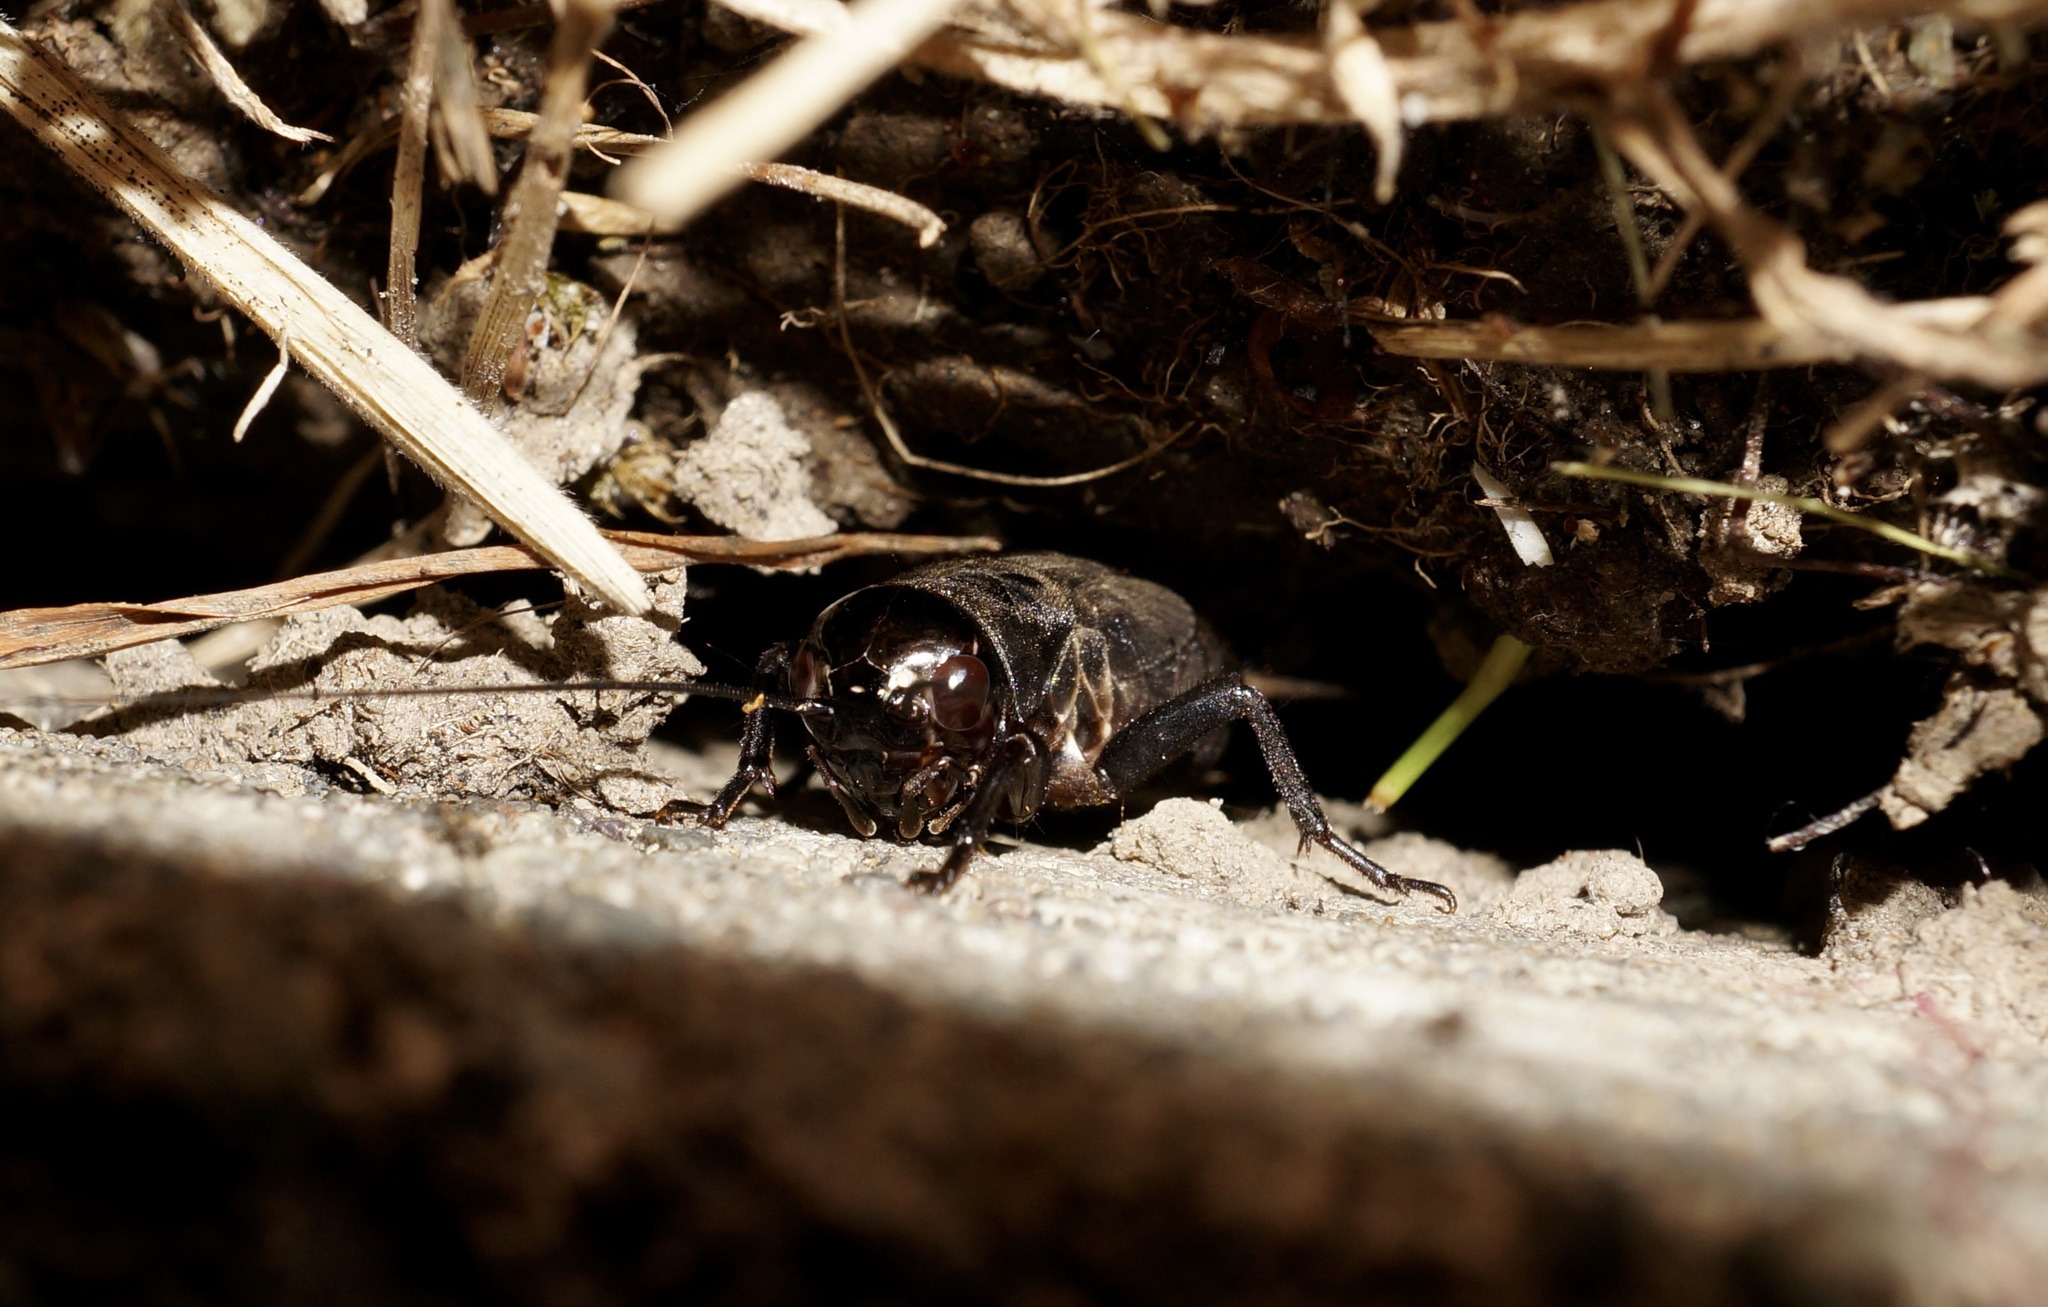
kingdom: Animalia
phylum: Arthropoda
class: Insecta
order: Orthoptera
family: Gryllidae
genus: Teleogryllus
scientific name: Teleogryllus commodus
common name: Black field cricket
